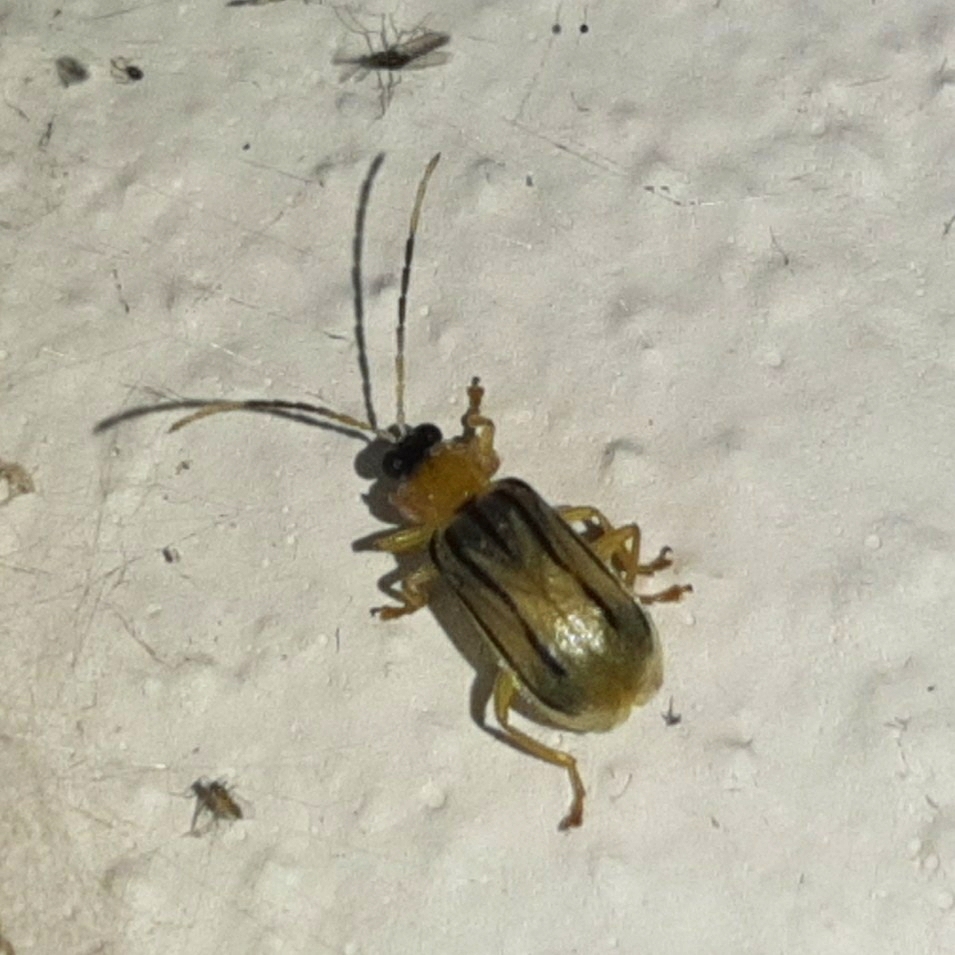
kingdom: Animalia
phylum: Arthropoda
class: Insecta
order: Coleoptera
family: Chrysomelidae
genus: Diabrotica
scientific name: Diabrotica
